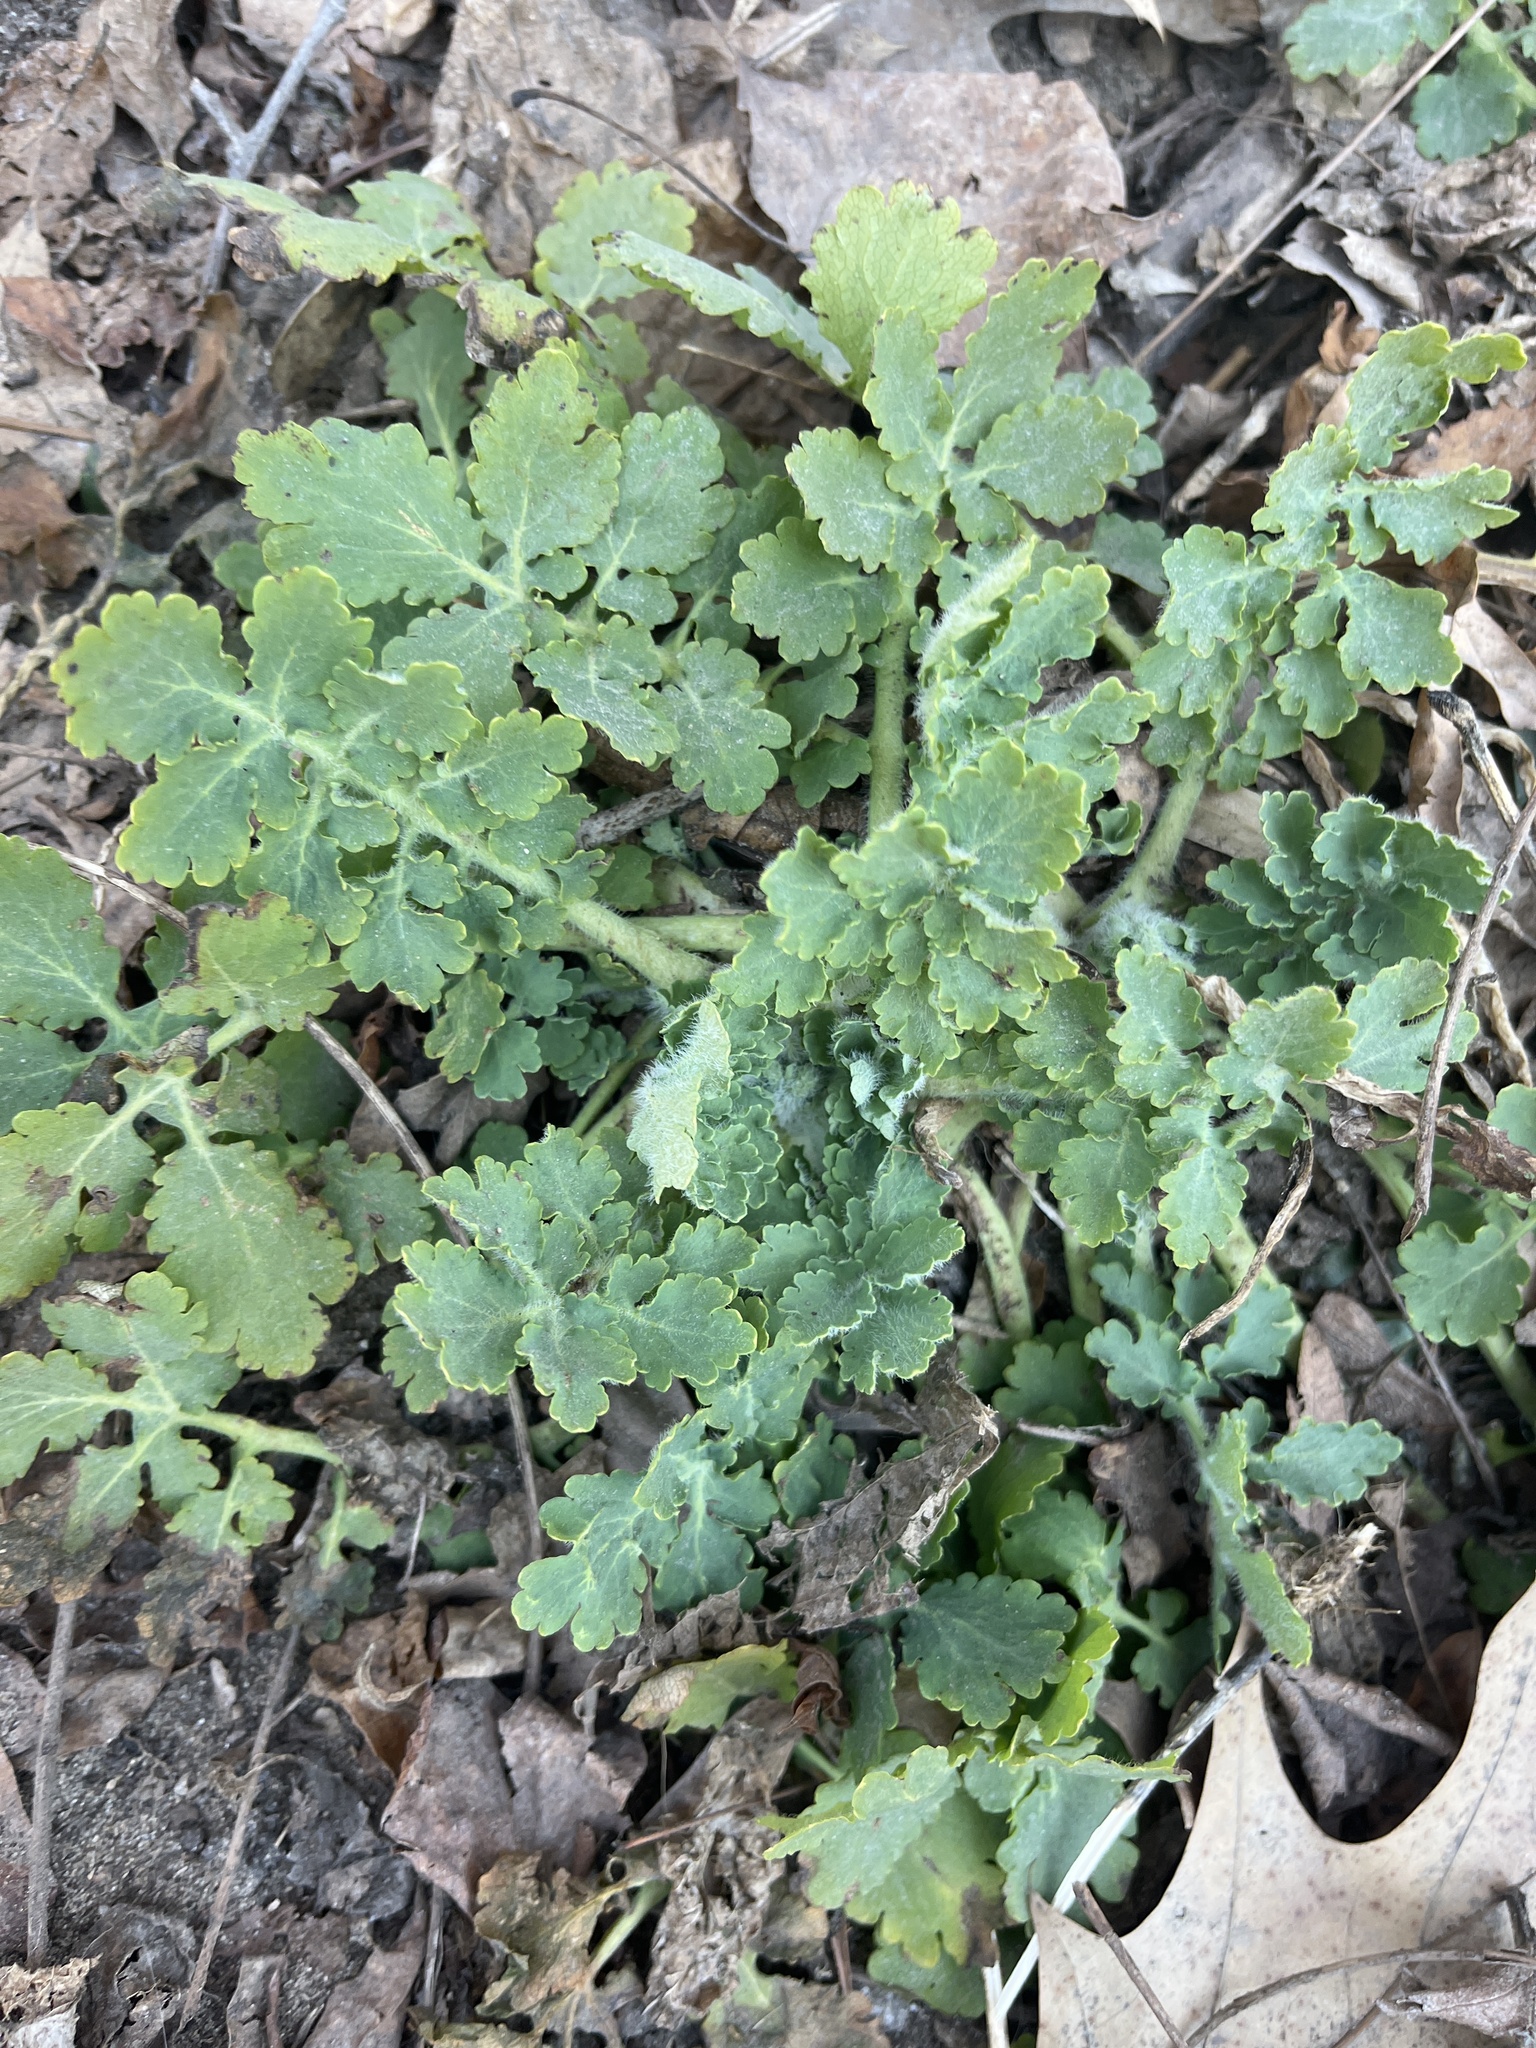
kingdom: Plantae
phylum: Tracheophyta
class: Magnoliopsida
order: Ranunculales
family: Papaveraceae
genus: Chelidonium
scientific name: Chelidonium majus
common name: Greater celandine
